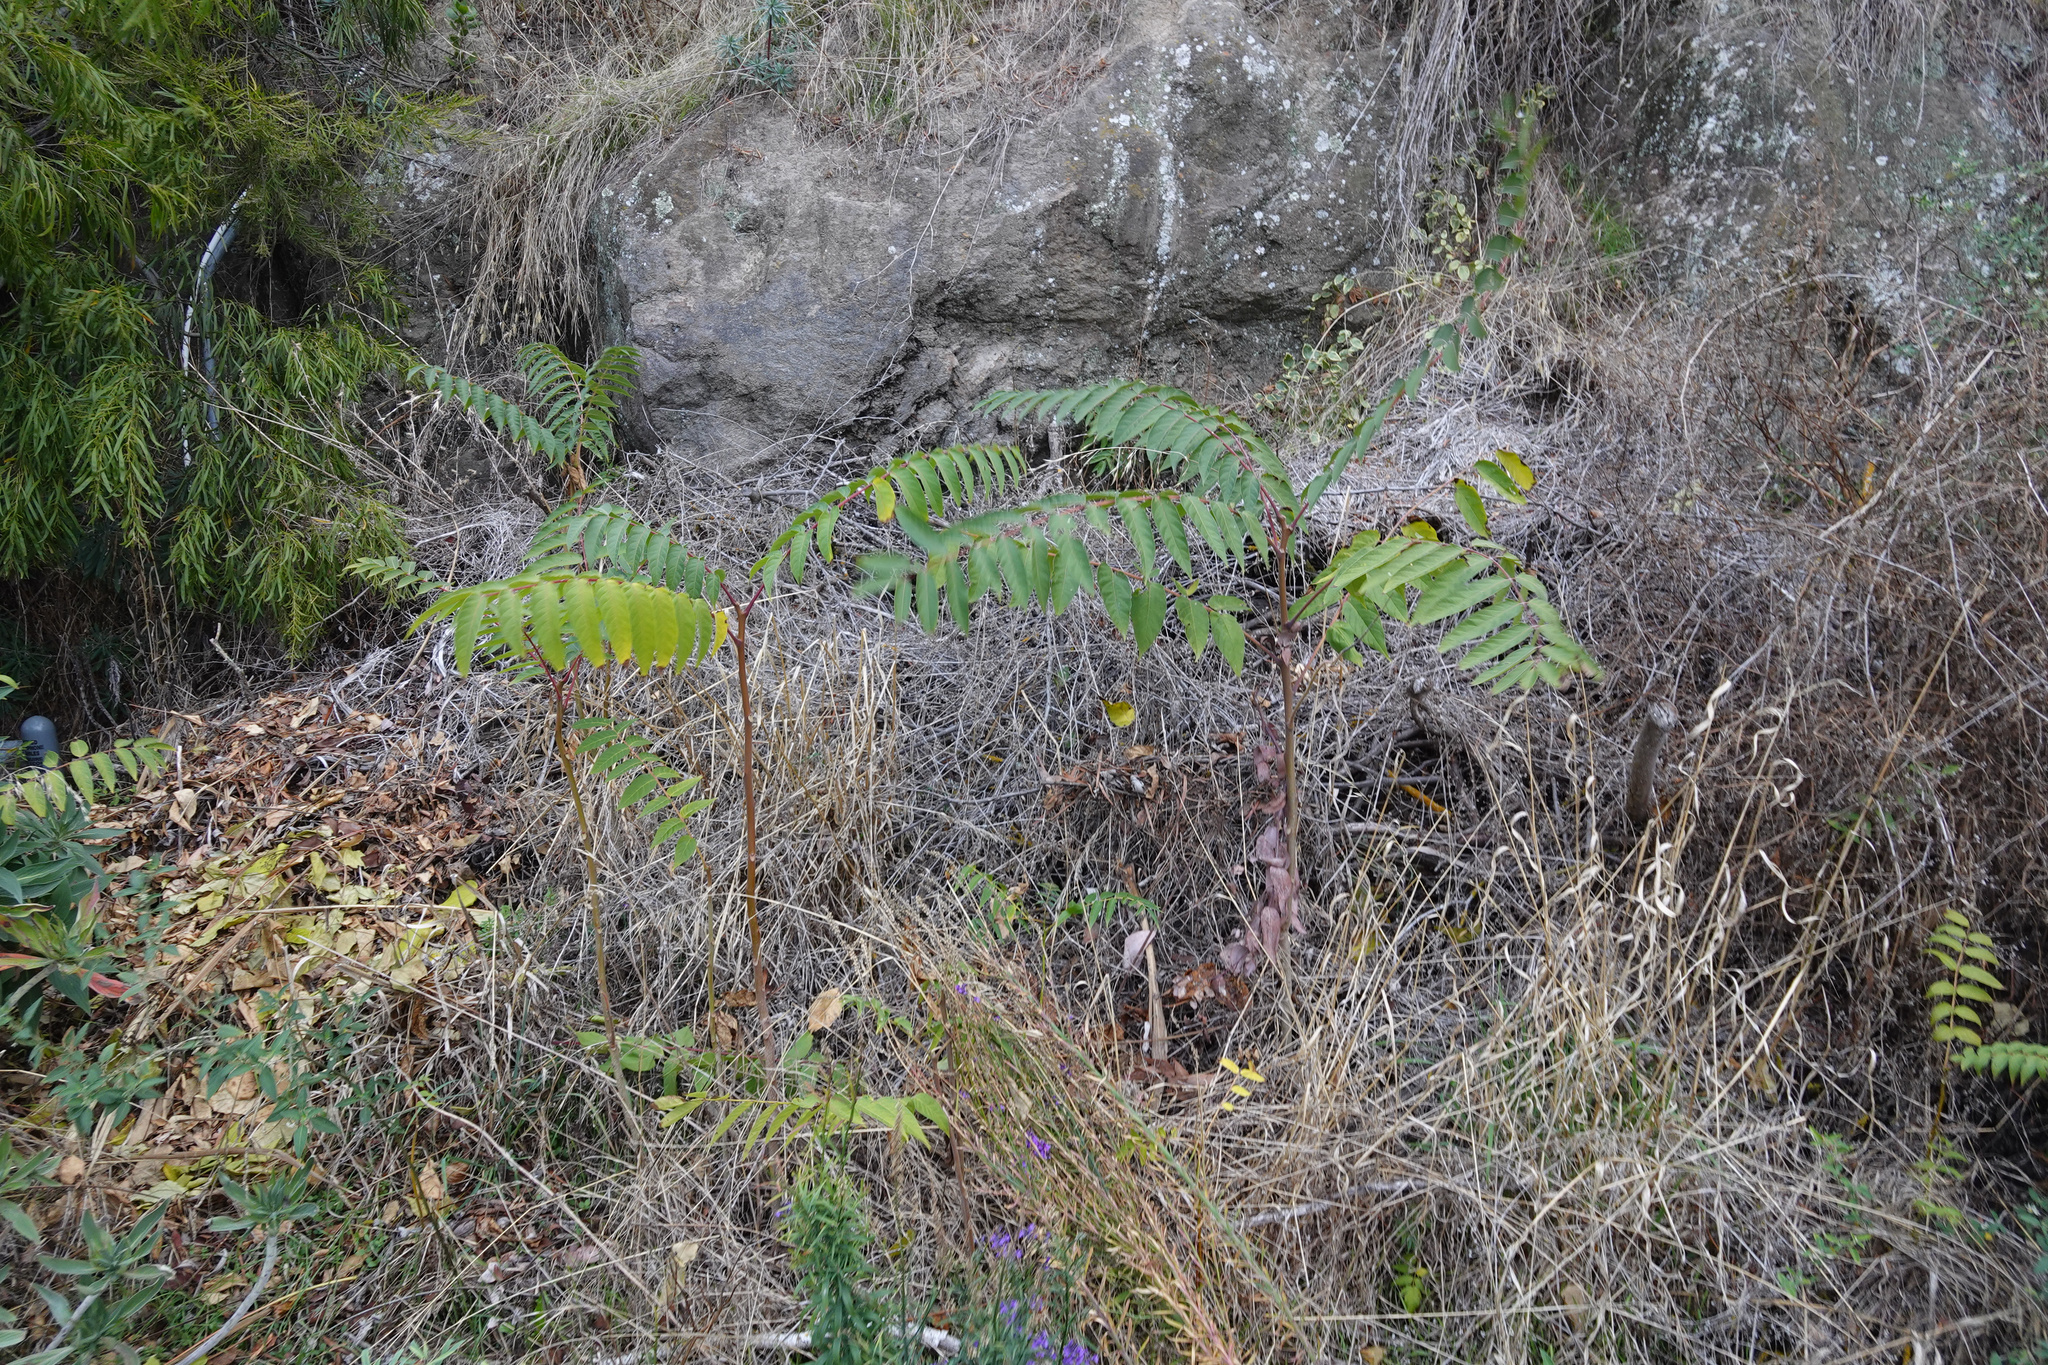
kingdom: Plantae
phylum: Tracheophyta
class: Magnoliopsida
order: Sapindales
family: Simaroubaceae
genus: Ailanthus
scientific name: Ailanthus altissima
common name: Tree-of-heaven
